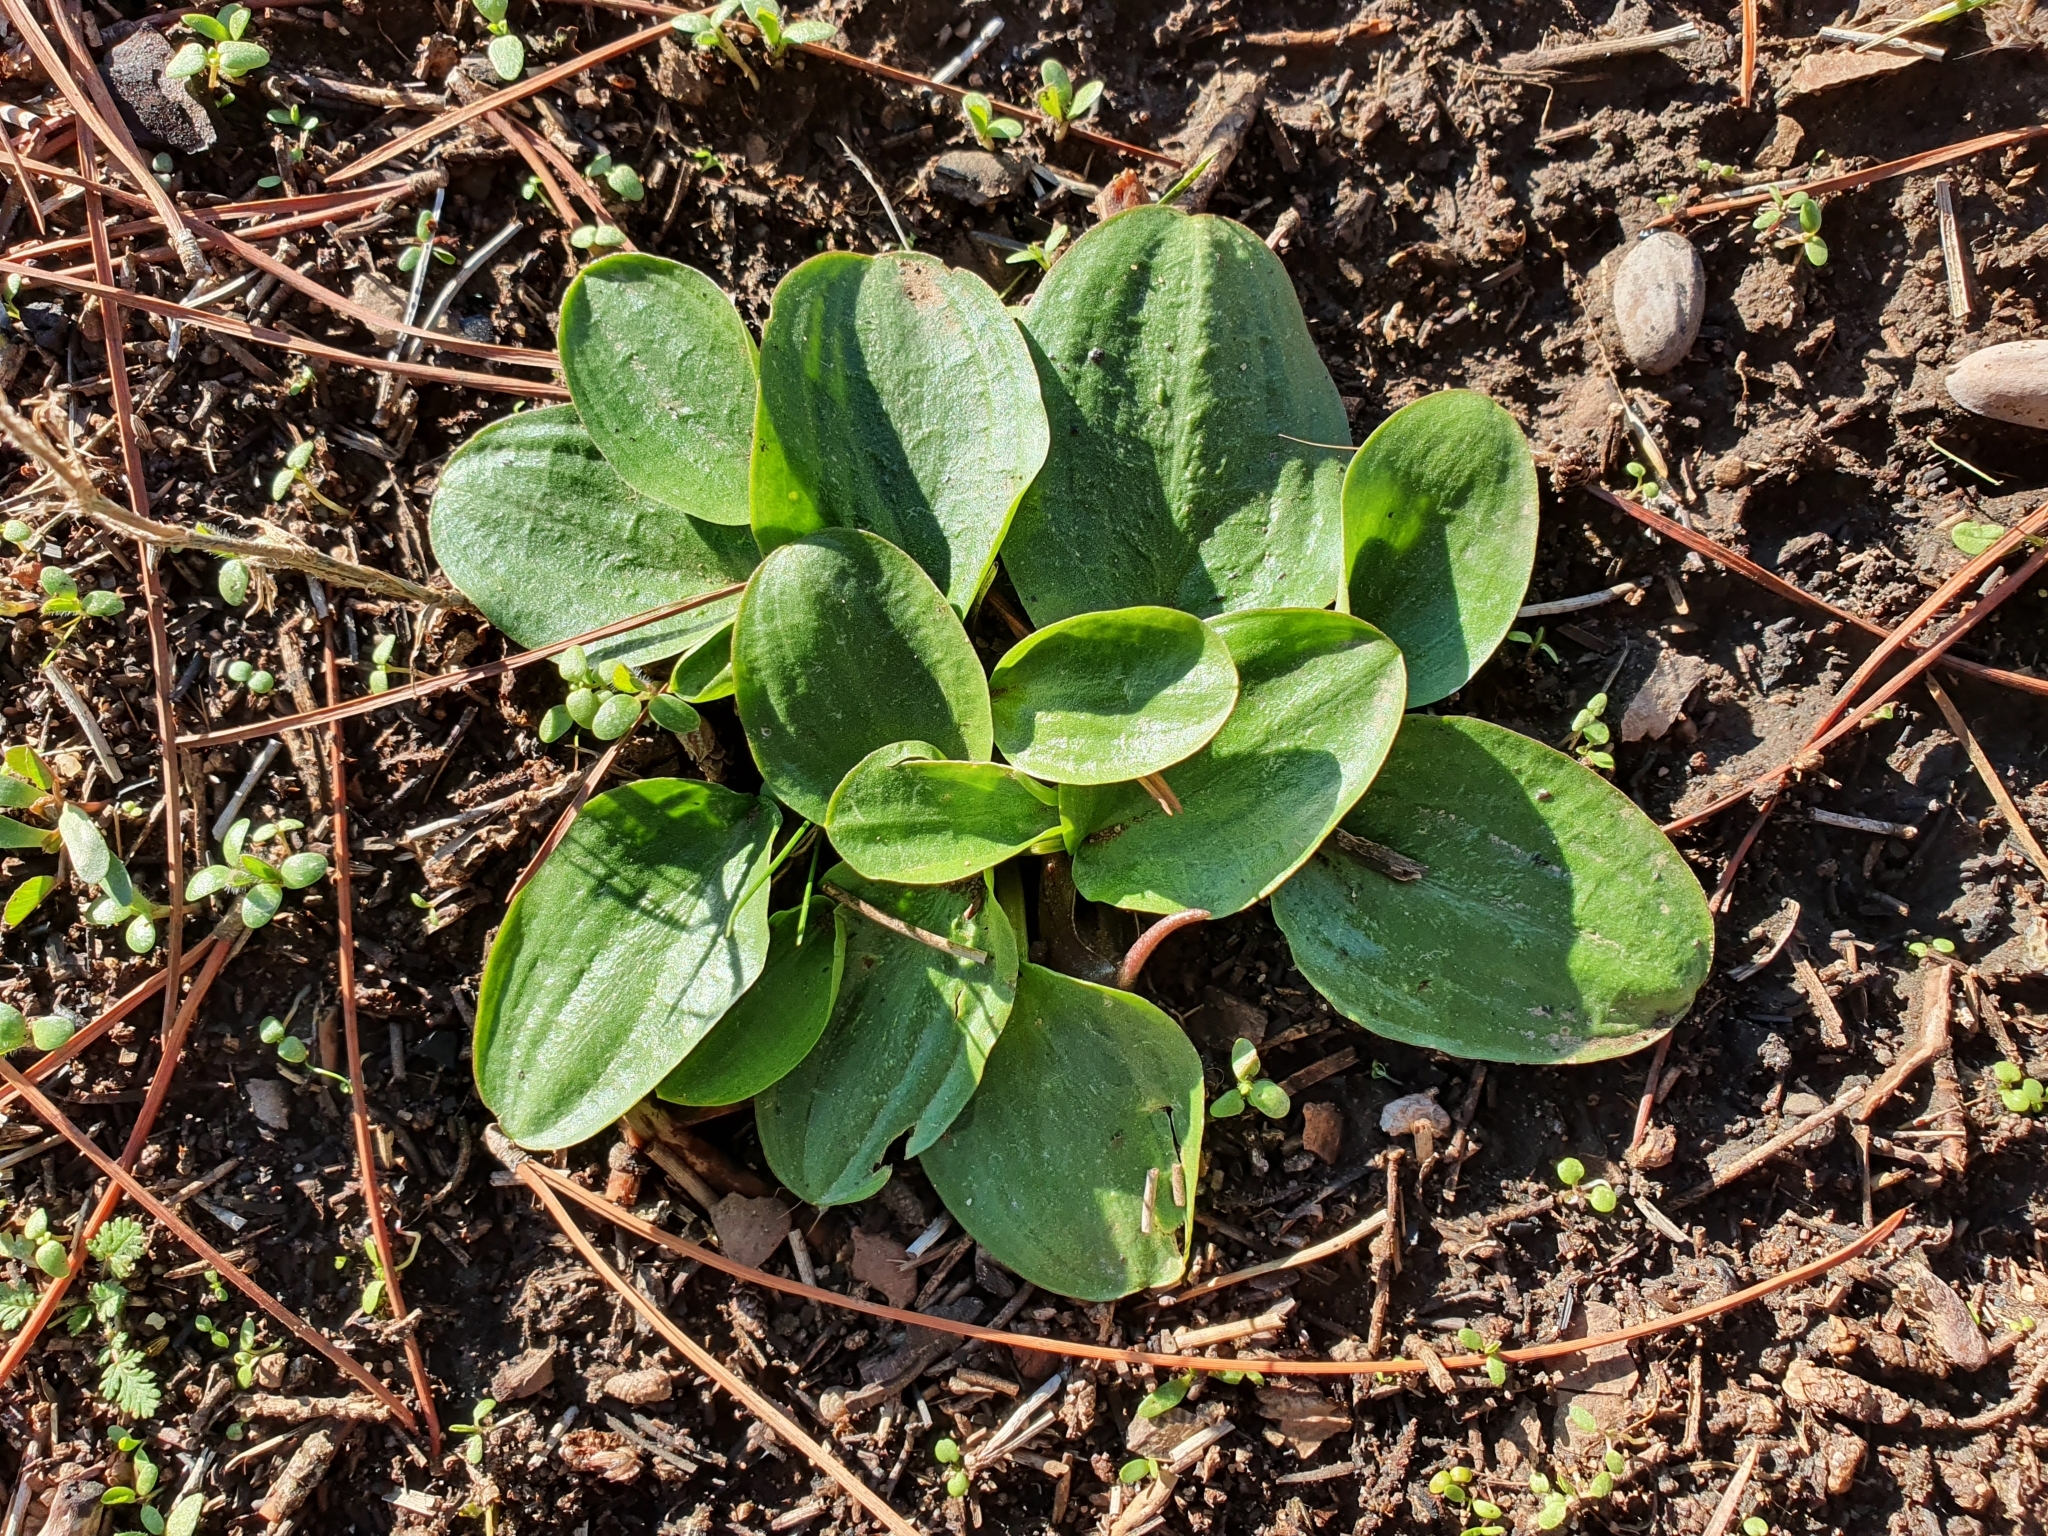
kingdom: Plantae
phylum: Tracheophyta
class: Liliopsida
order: Alismatales
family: Araceae
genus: Ambrosina
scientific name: Ambrosina bassii
